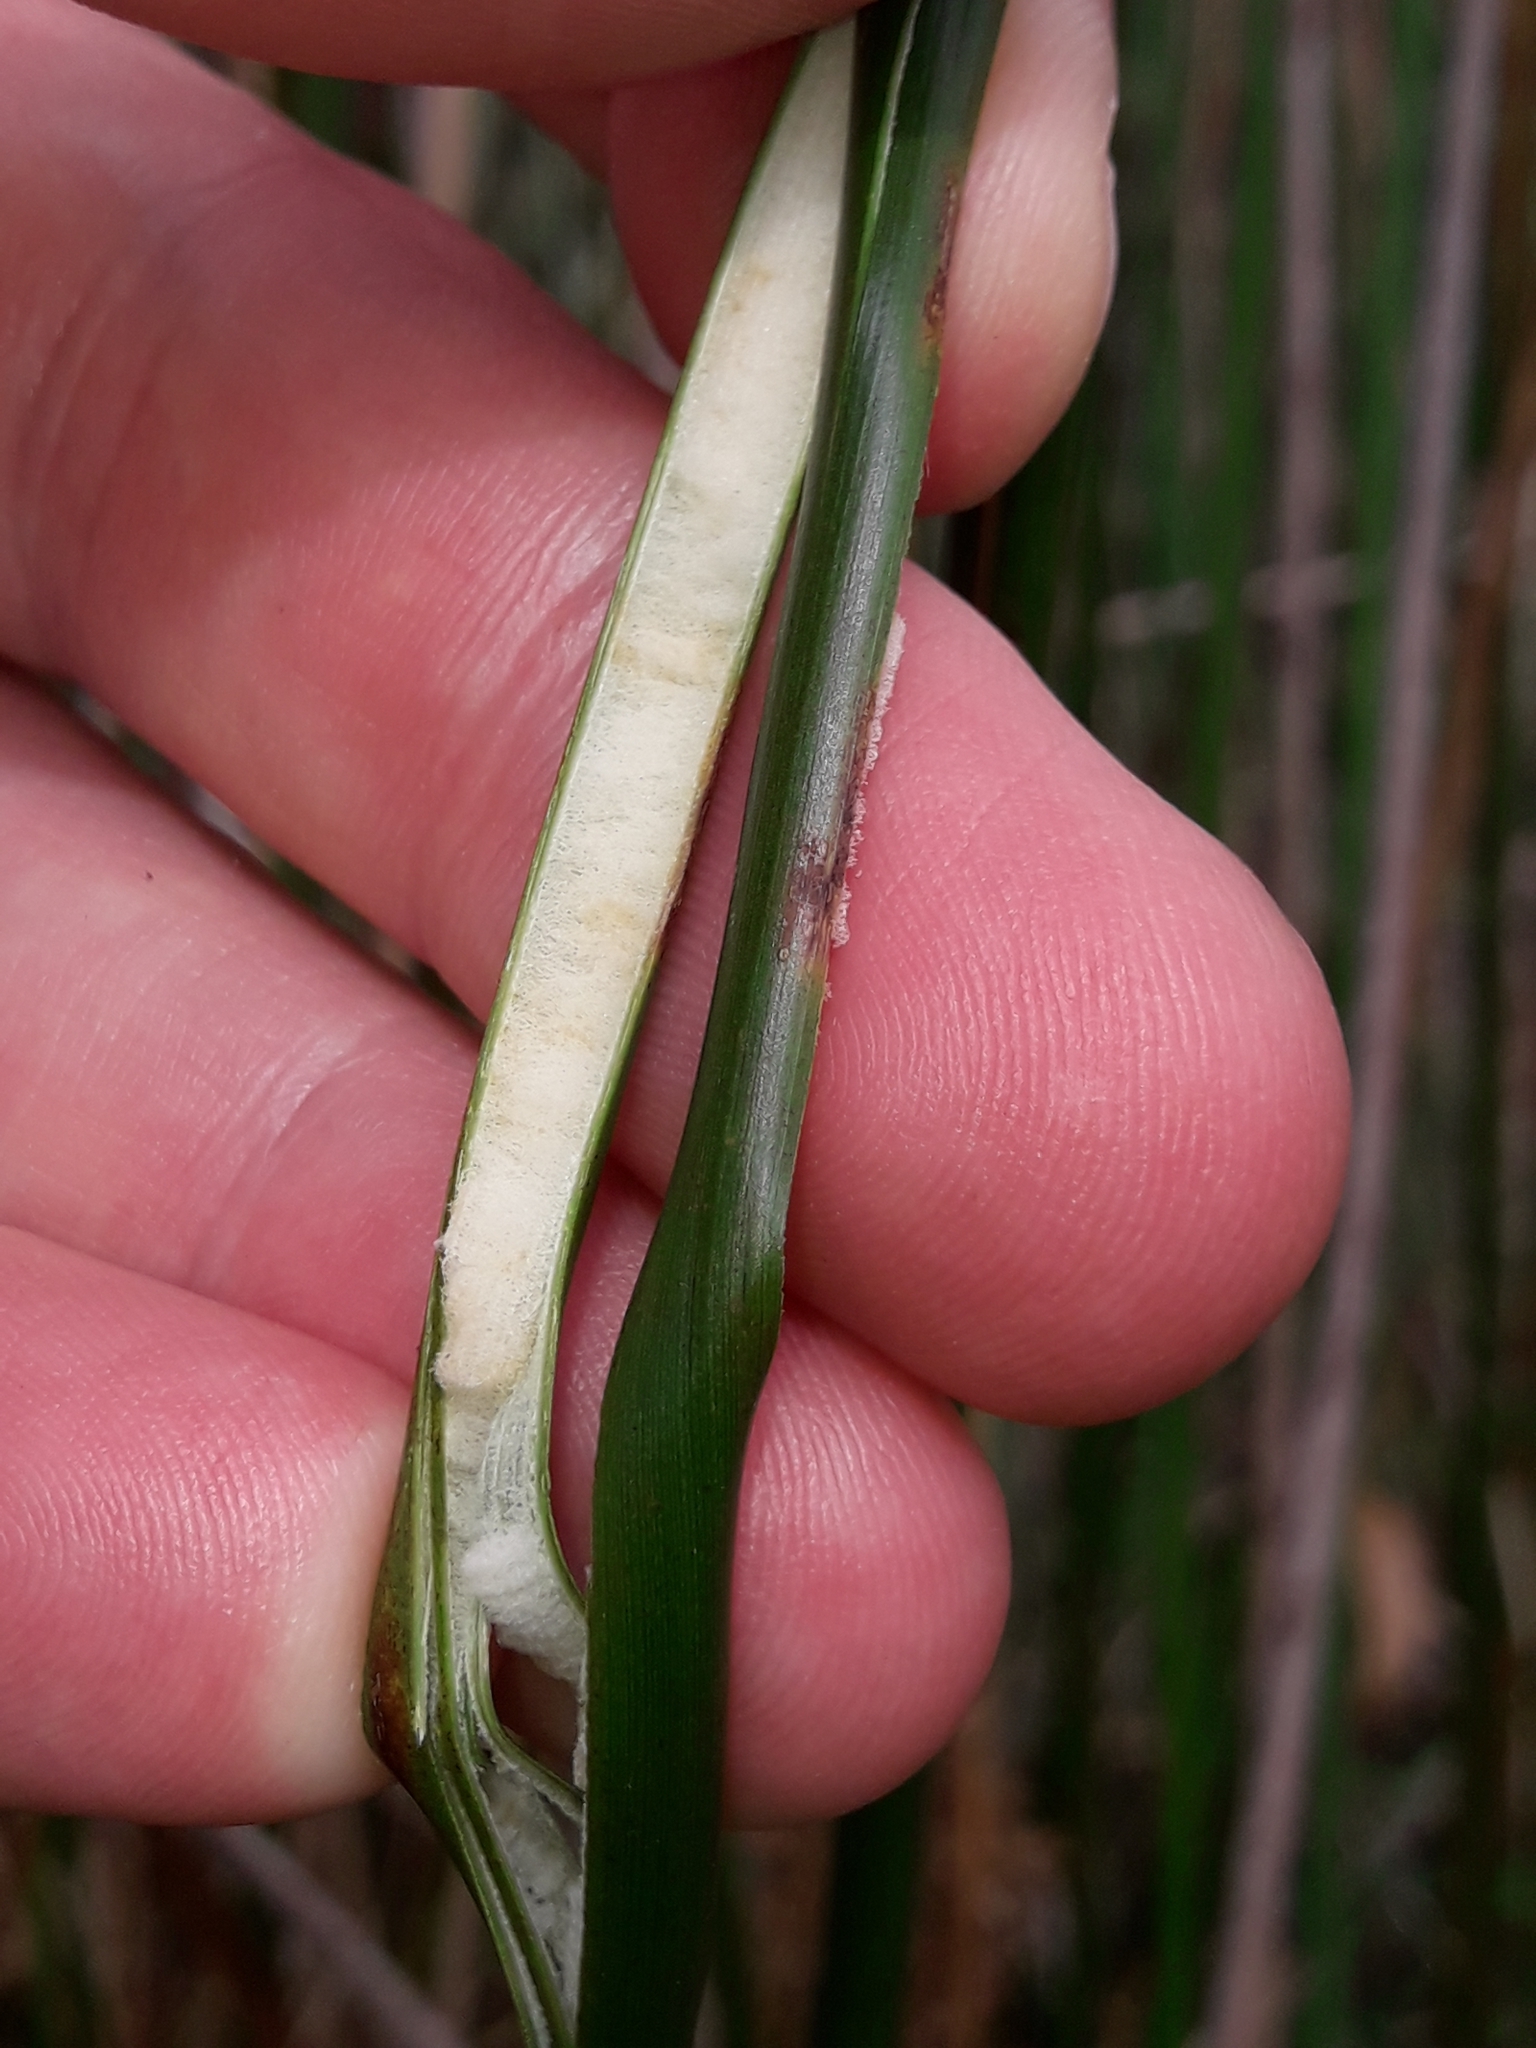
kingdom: Plantae
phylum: Tracheophyta
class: Liliopsida
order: Poales
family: Juncaceae
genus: Juncus
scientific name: Juncus pallidus
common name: Great soft-rush
